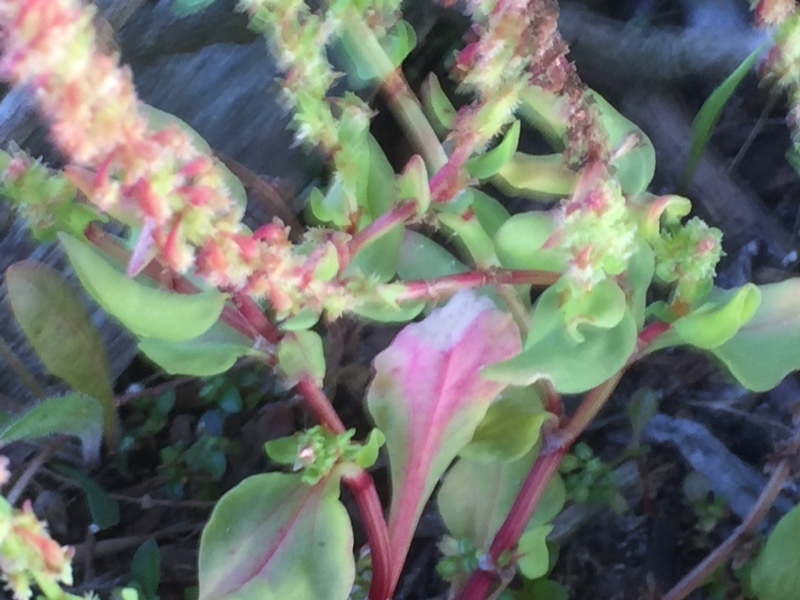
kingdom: Plantae
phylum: Tracheophyta
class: Magnoliopsida
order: Caryophyllales
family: Polygonaceae
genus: Rumex
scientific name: Rumex bucephalophorus
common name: Red dock
